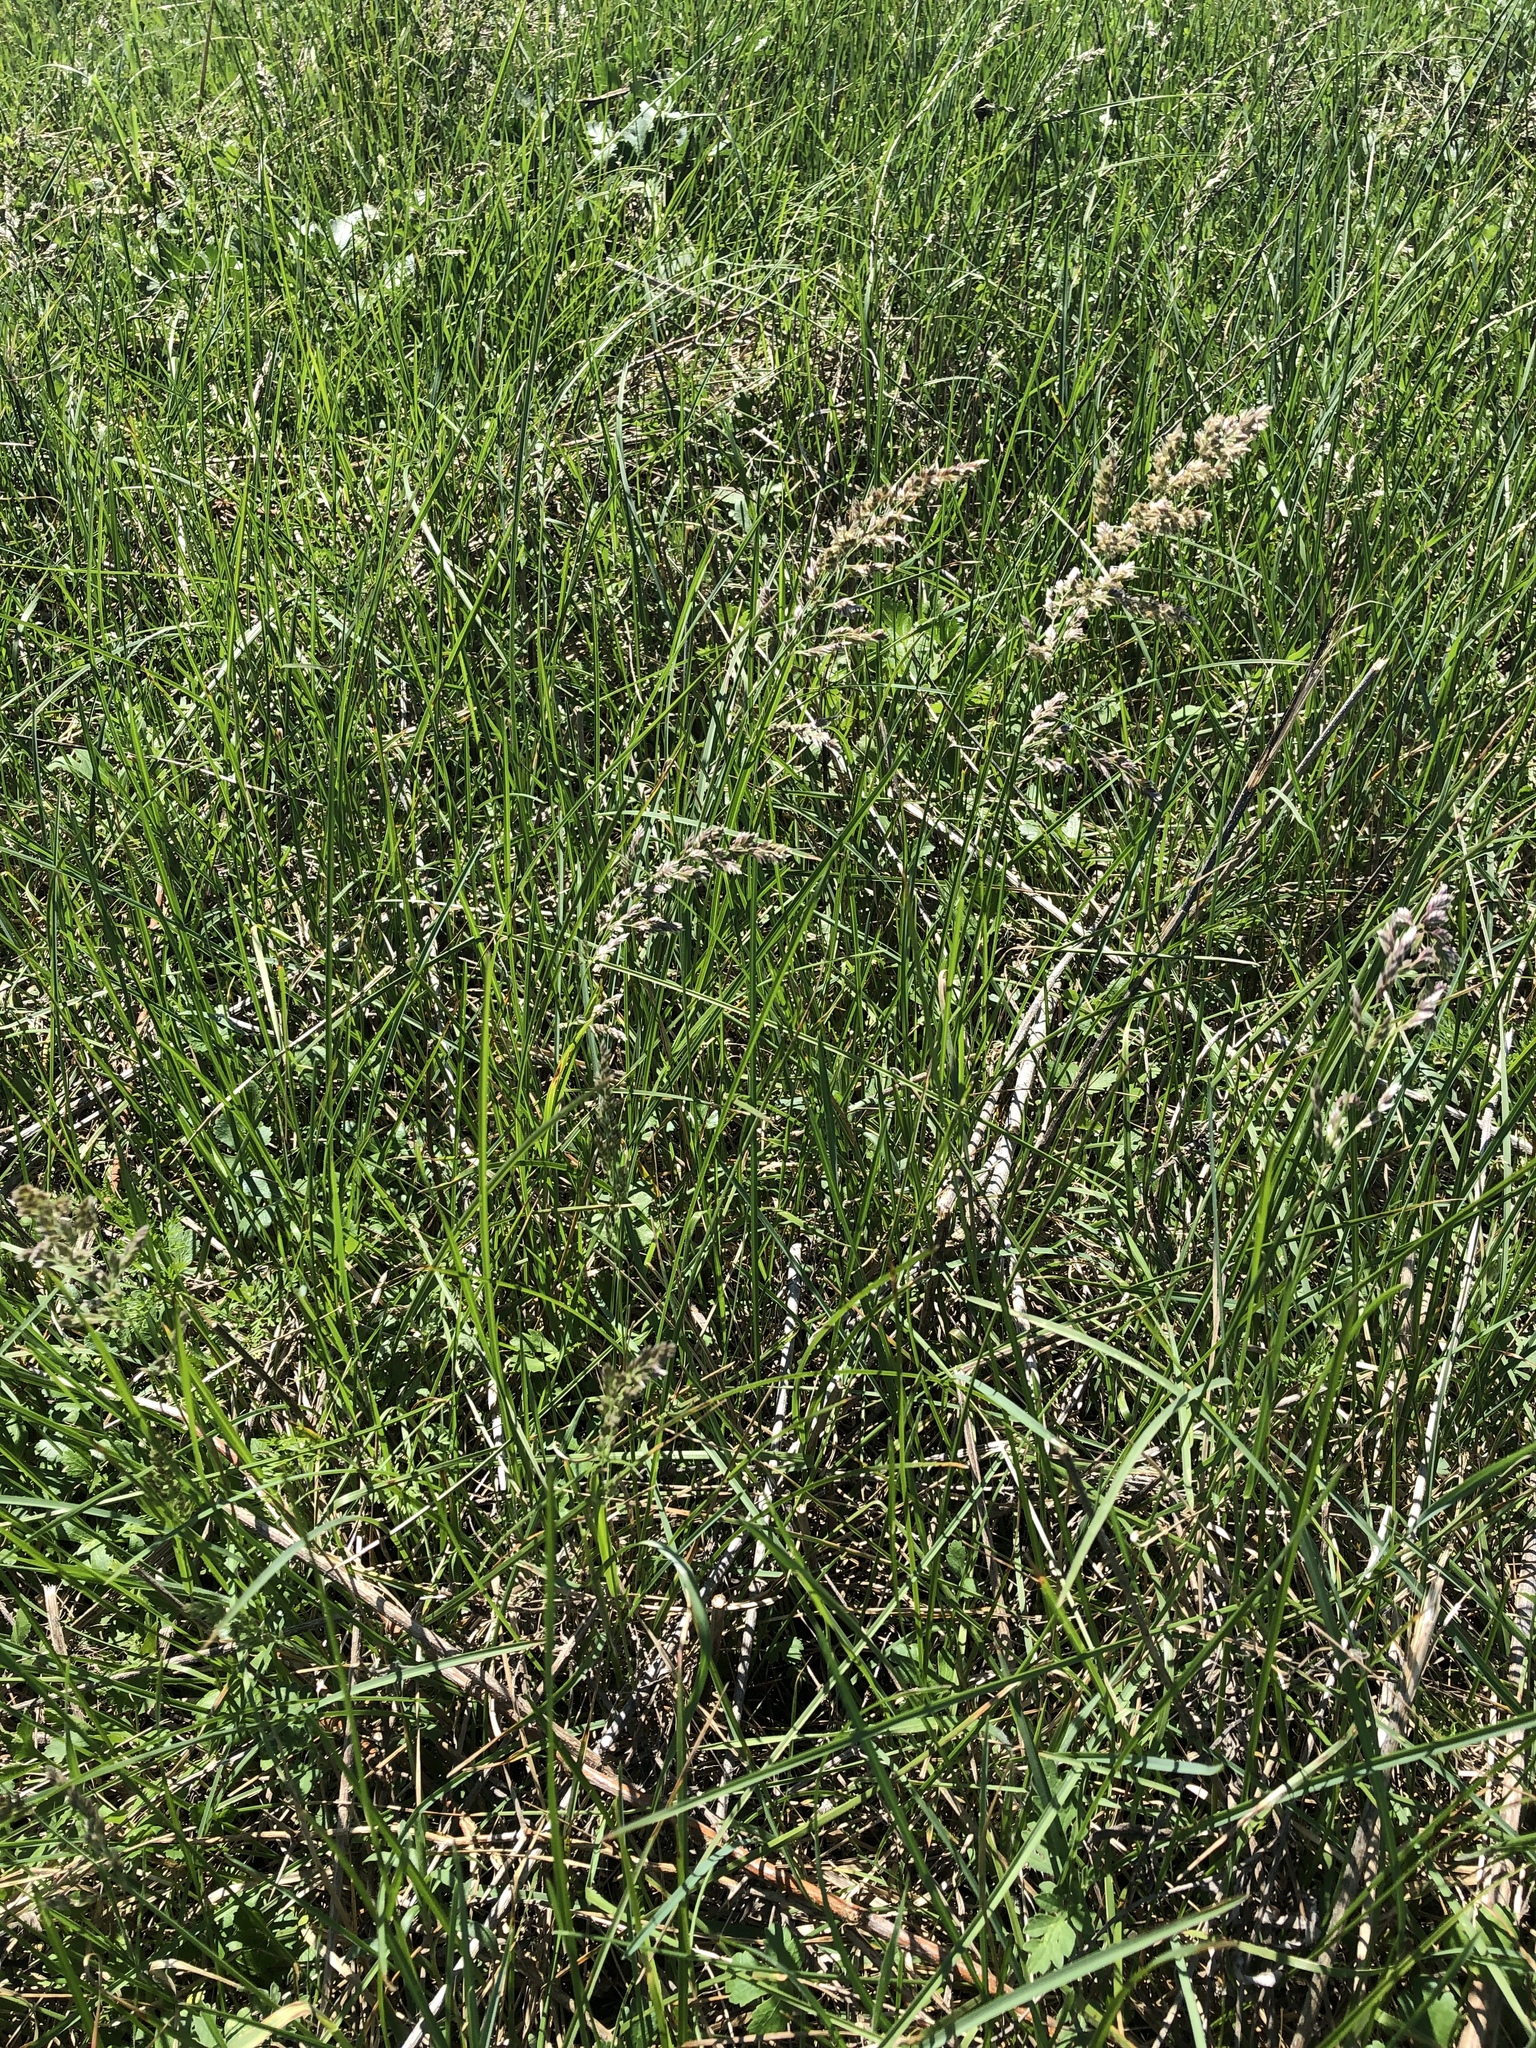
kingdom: Plantae
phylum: Tracheophyta
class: Liliopsida
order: Poales
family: Poaceae
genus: Poa
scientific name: Poa arachnifera
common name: Texas bluegrass
